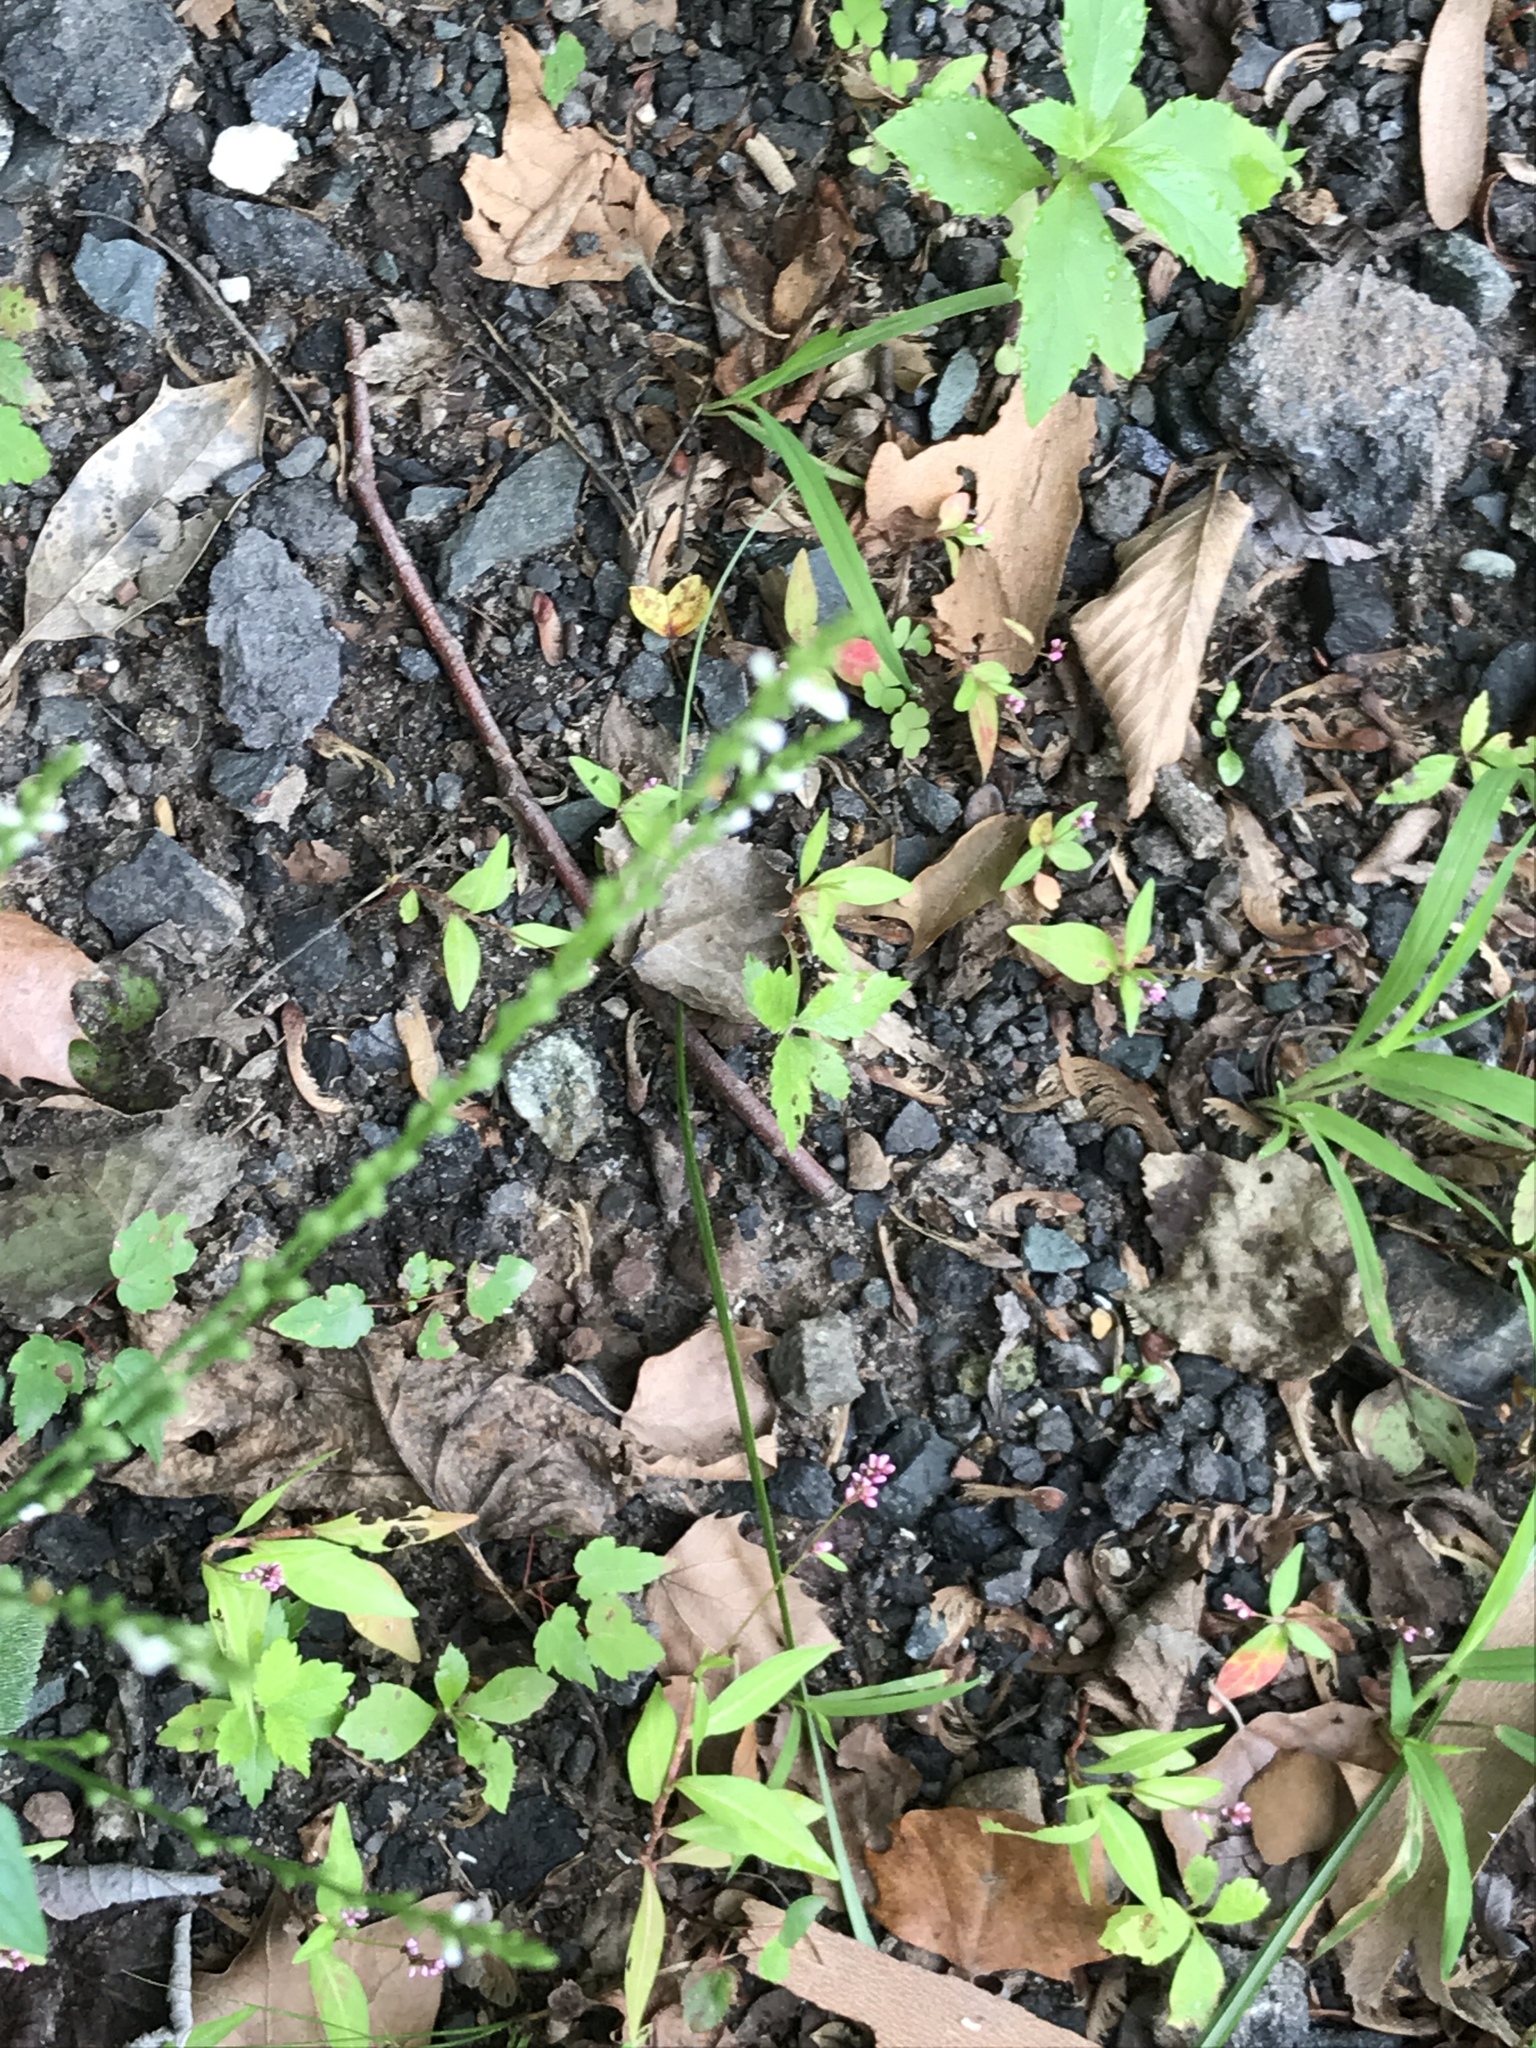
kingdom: Plantae
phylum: Tracheophyta
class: Magnoliopsida
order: Lamiales
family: Verbenaceae
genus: Verbena
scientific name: Verbena urticifolia
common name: Nettle-leaved vervain
